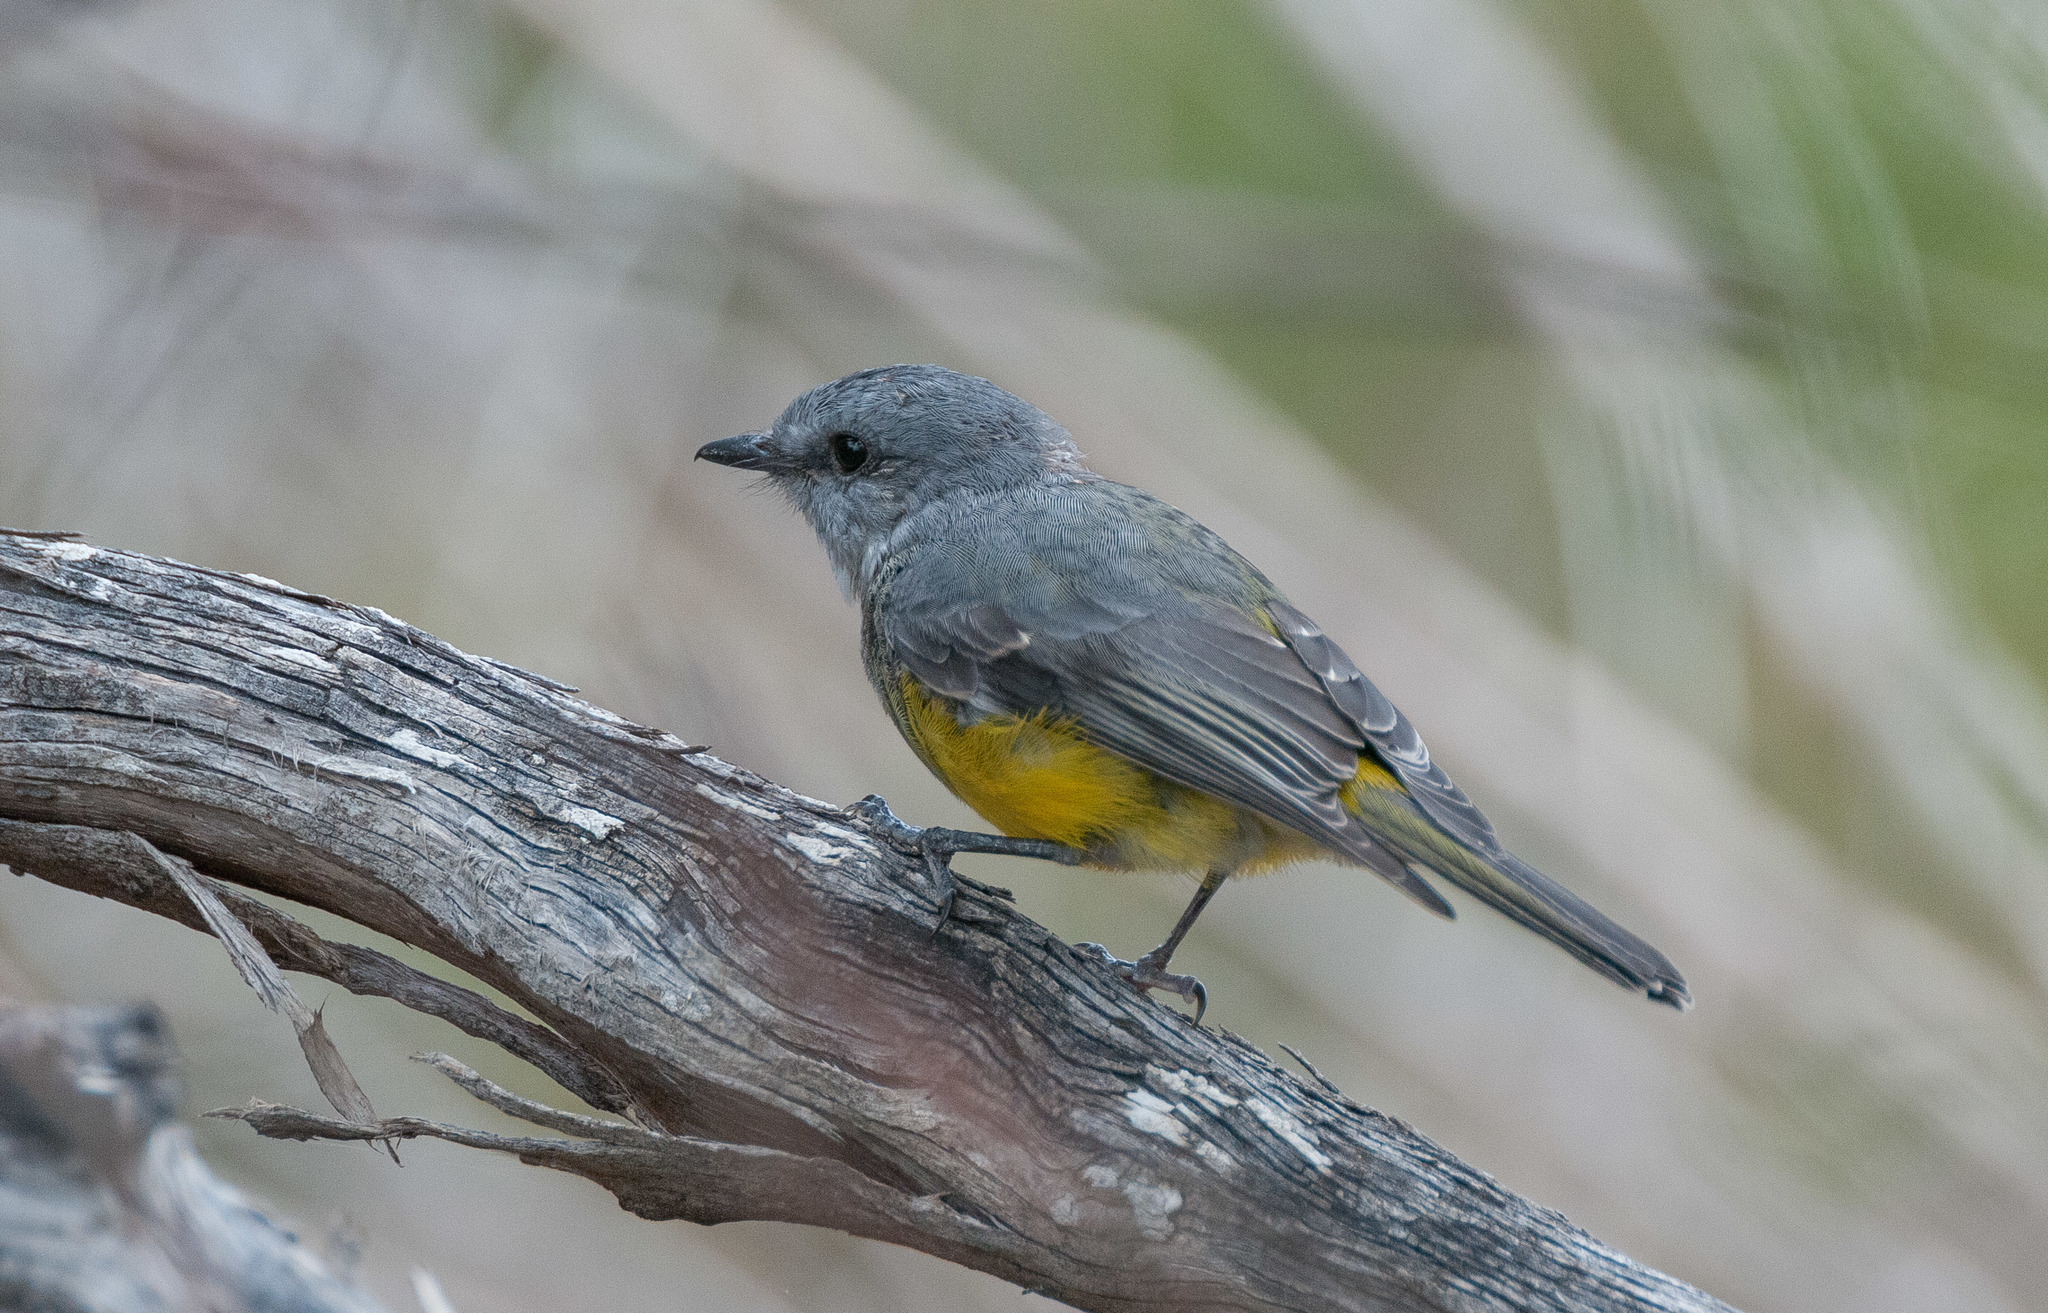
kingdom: Animalia
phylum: Chordata
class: Aves
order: Passeriformes
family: Petroicidae
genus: Eopsaltria
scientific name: Eopsaltria griseogularis
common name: Western yellow robin
